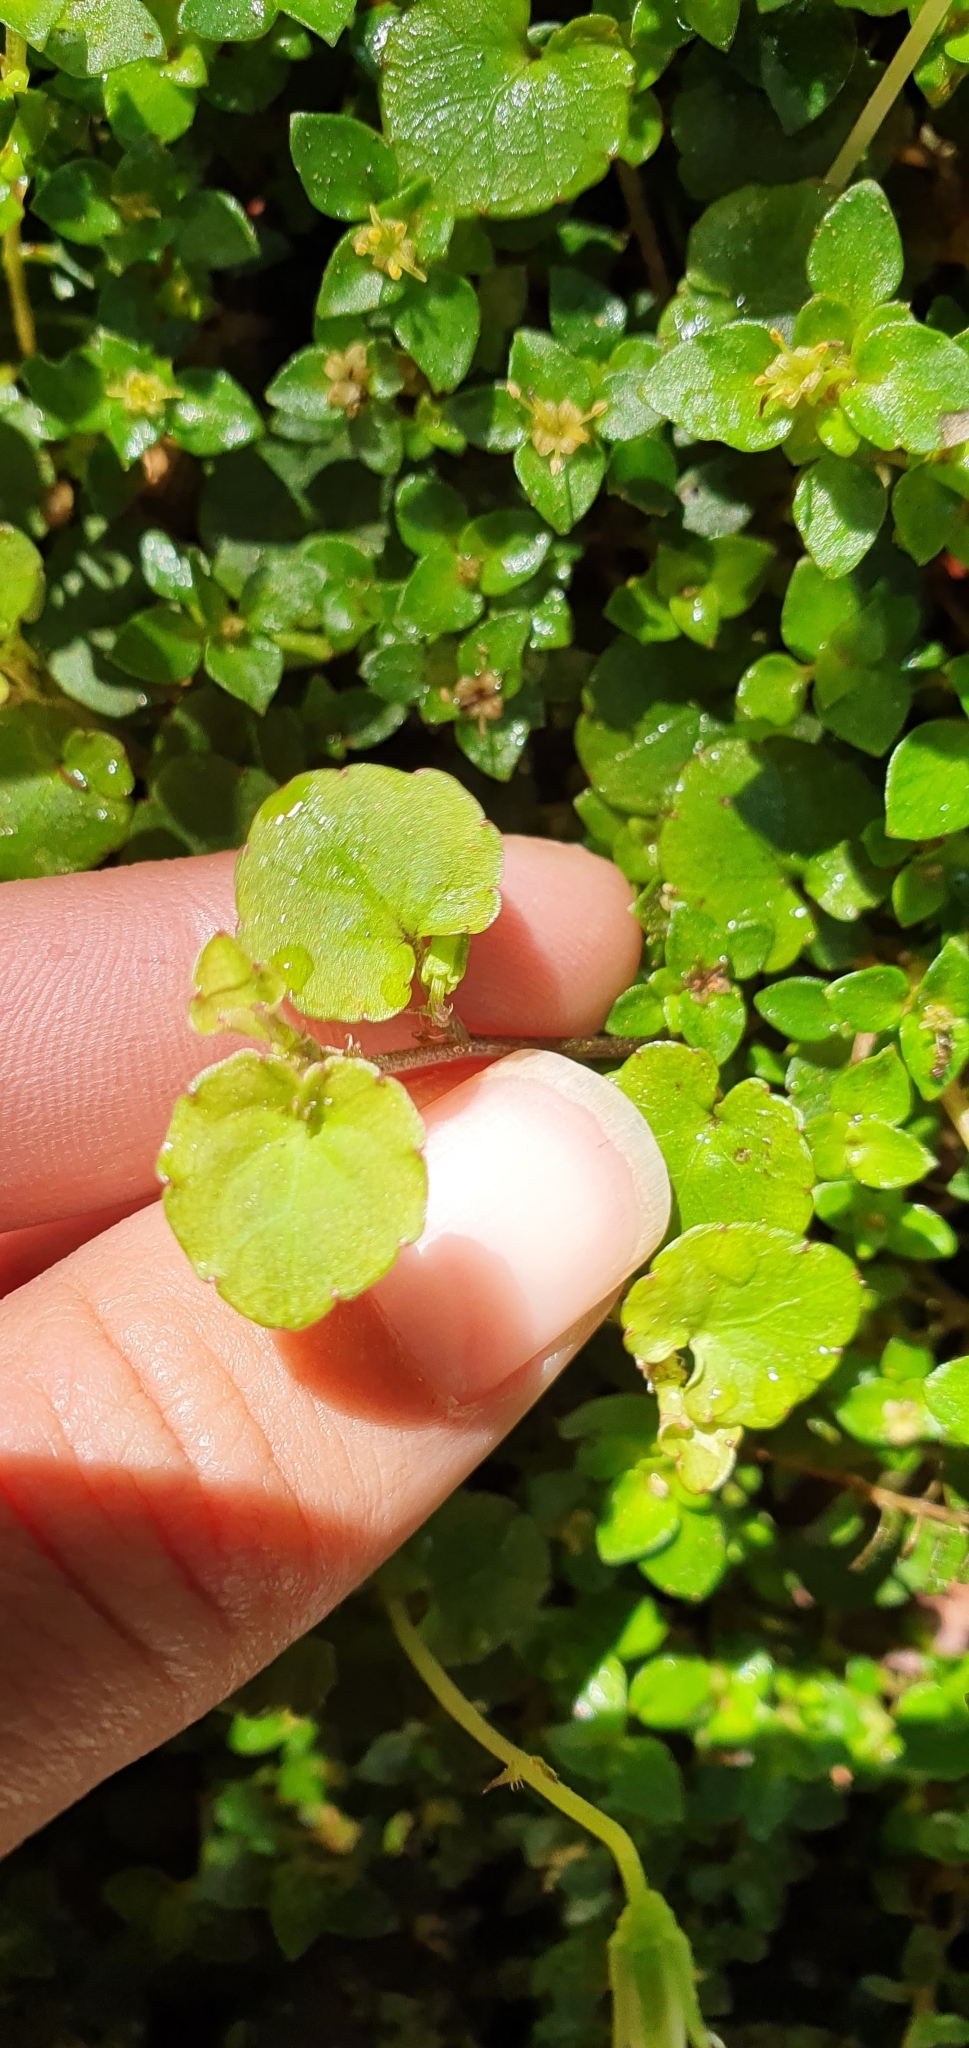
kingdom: Plantae
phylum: Tracheophyta
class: Magnoliopsida
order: Malpighiales
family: Violaceae
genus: Viola
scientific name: Viola filicaulis
